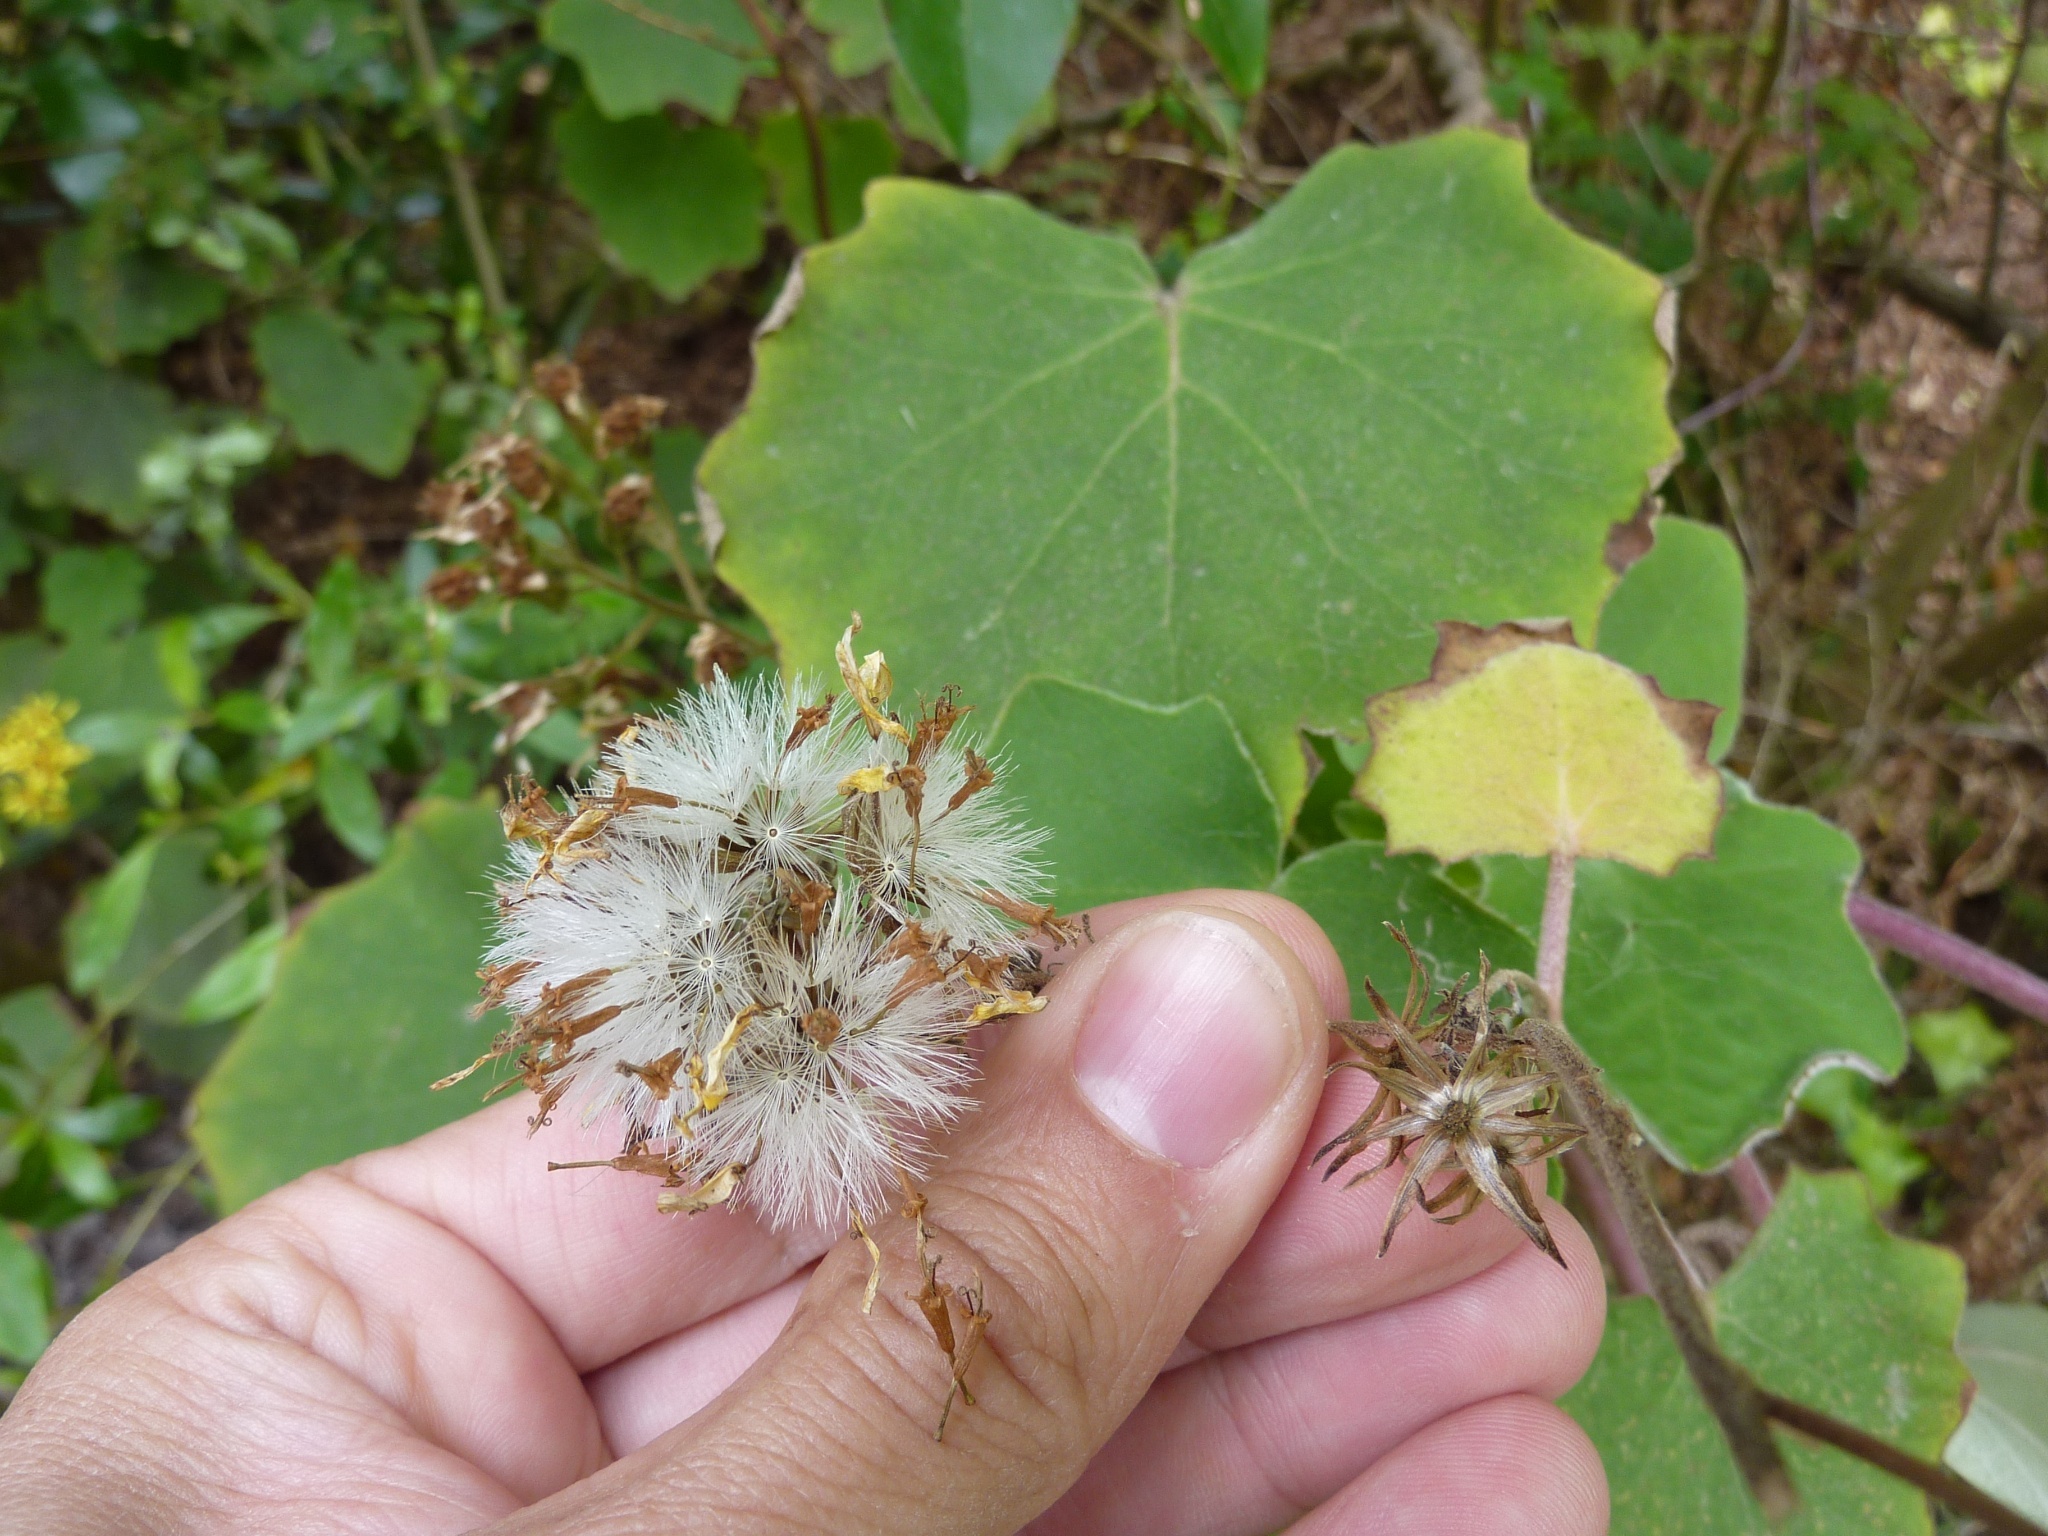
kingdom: Plantae
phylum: Tracheophyta
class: Magnoliopsida
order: Asterales
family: Asteraceae
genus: Roldana
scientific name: Roldana petasitis
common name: California-geranium
